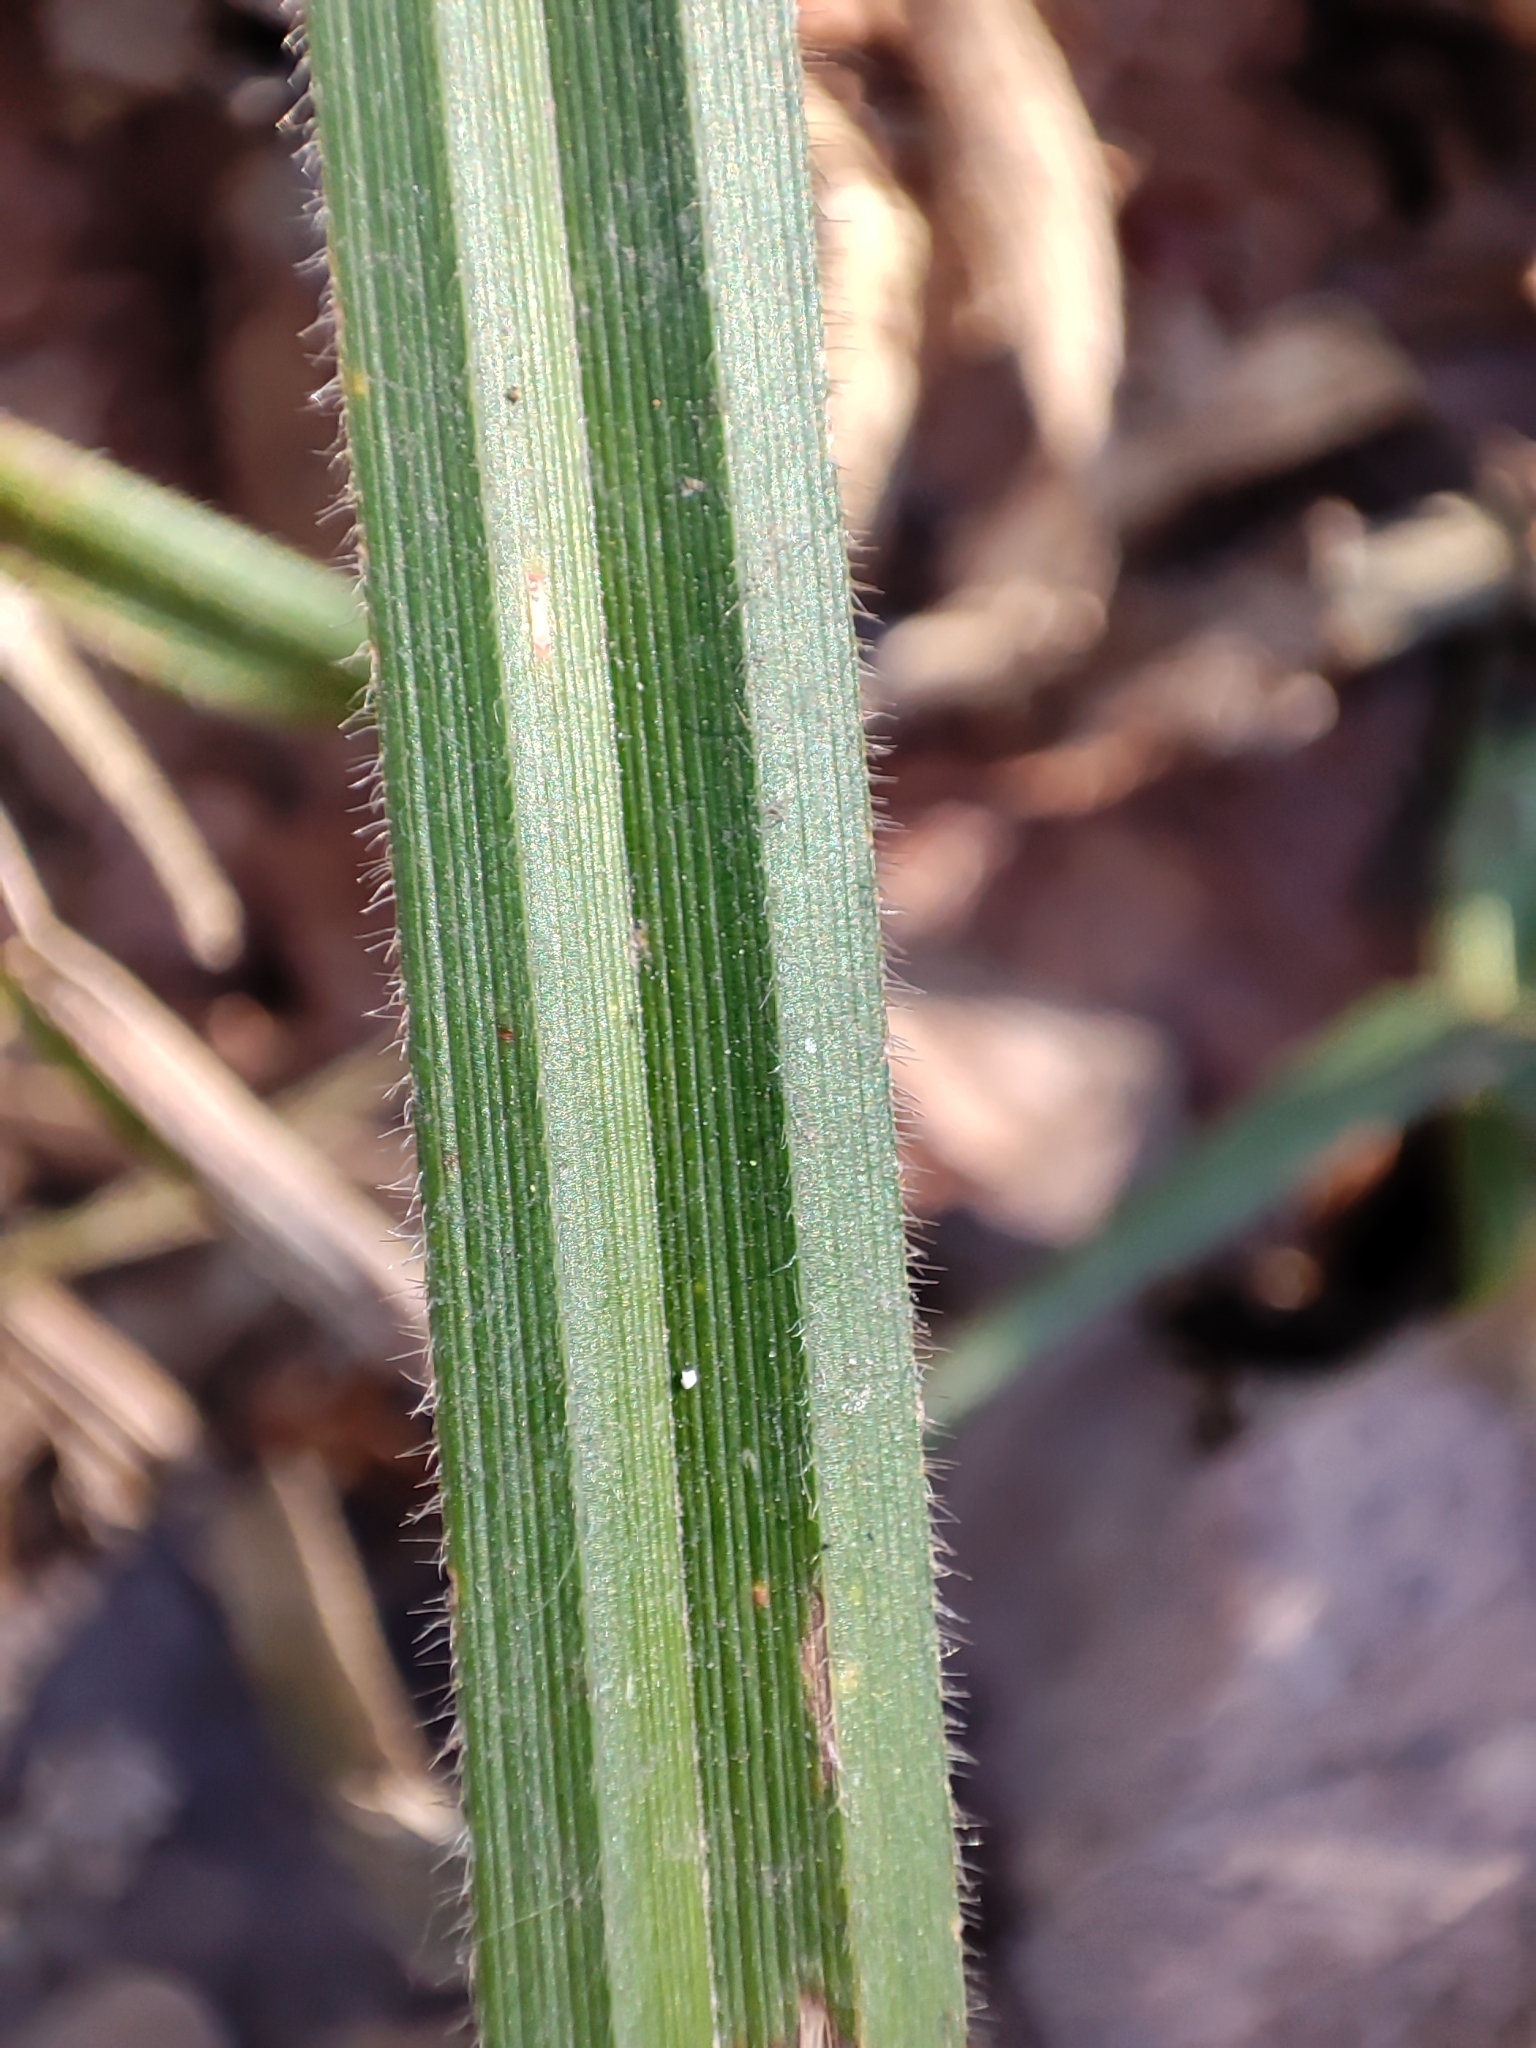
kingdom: Plantae
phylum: Tracheophyta
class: Liliopsida
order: Poales
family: Cyperaceae
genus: Carex
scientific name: Carex pilosa
